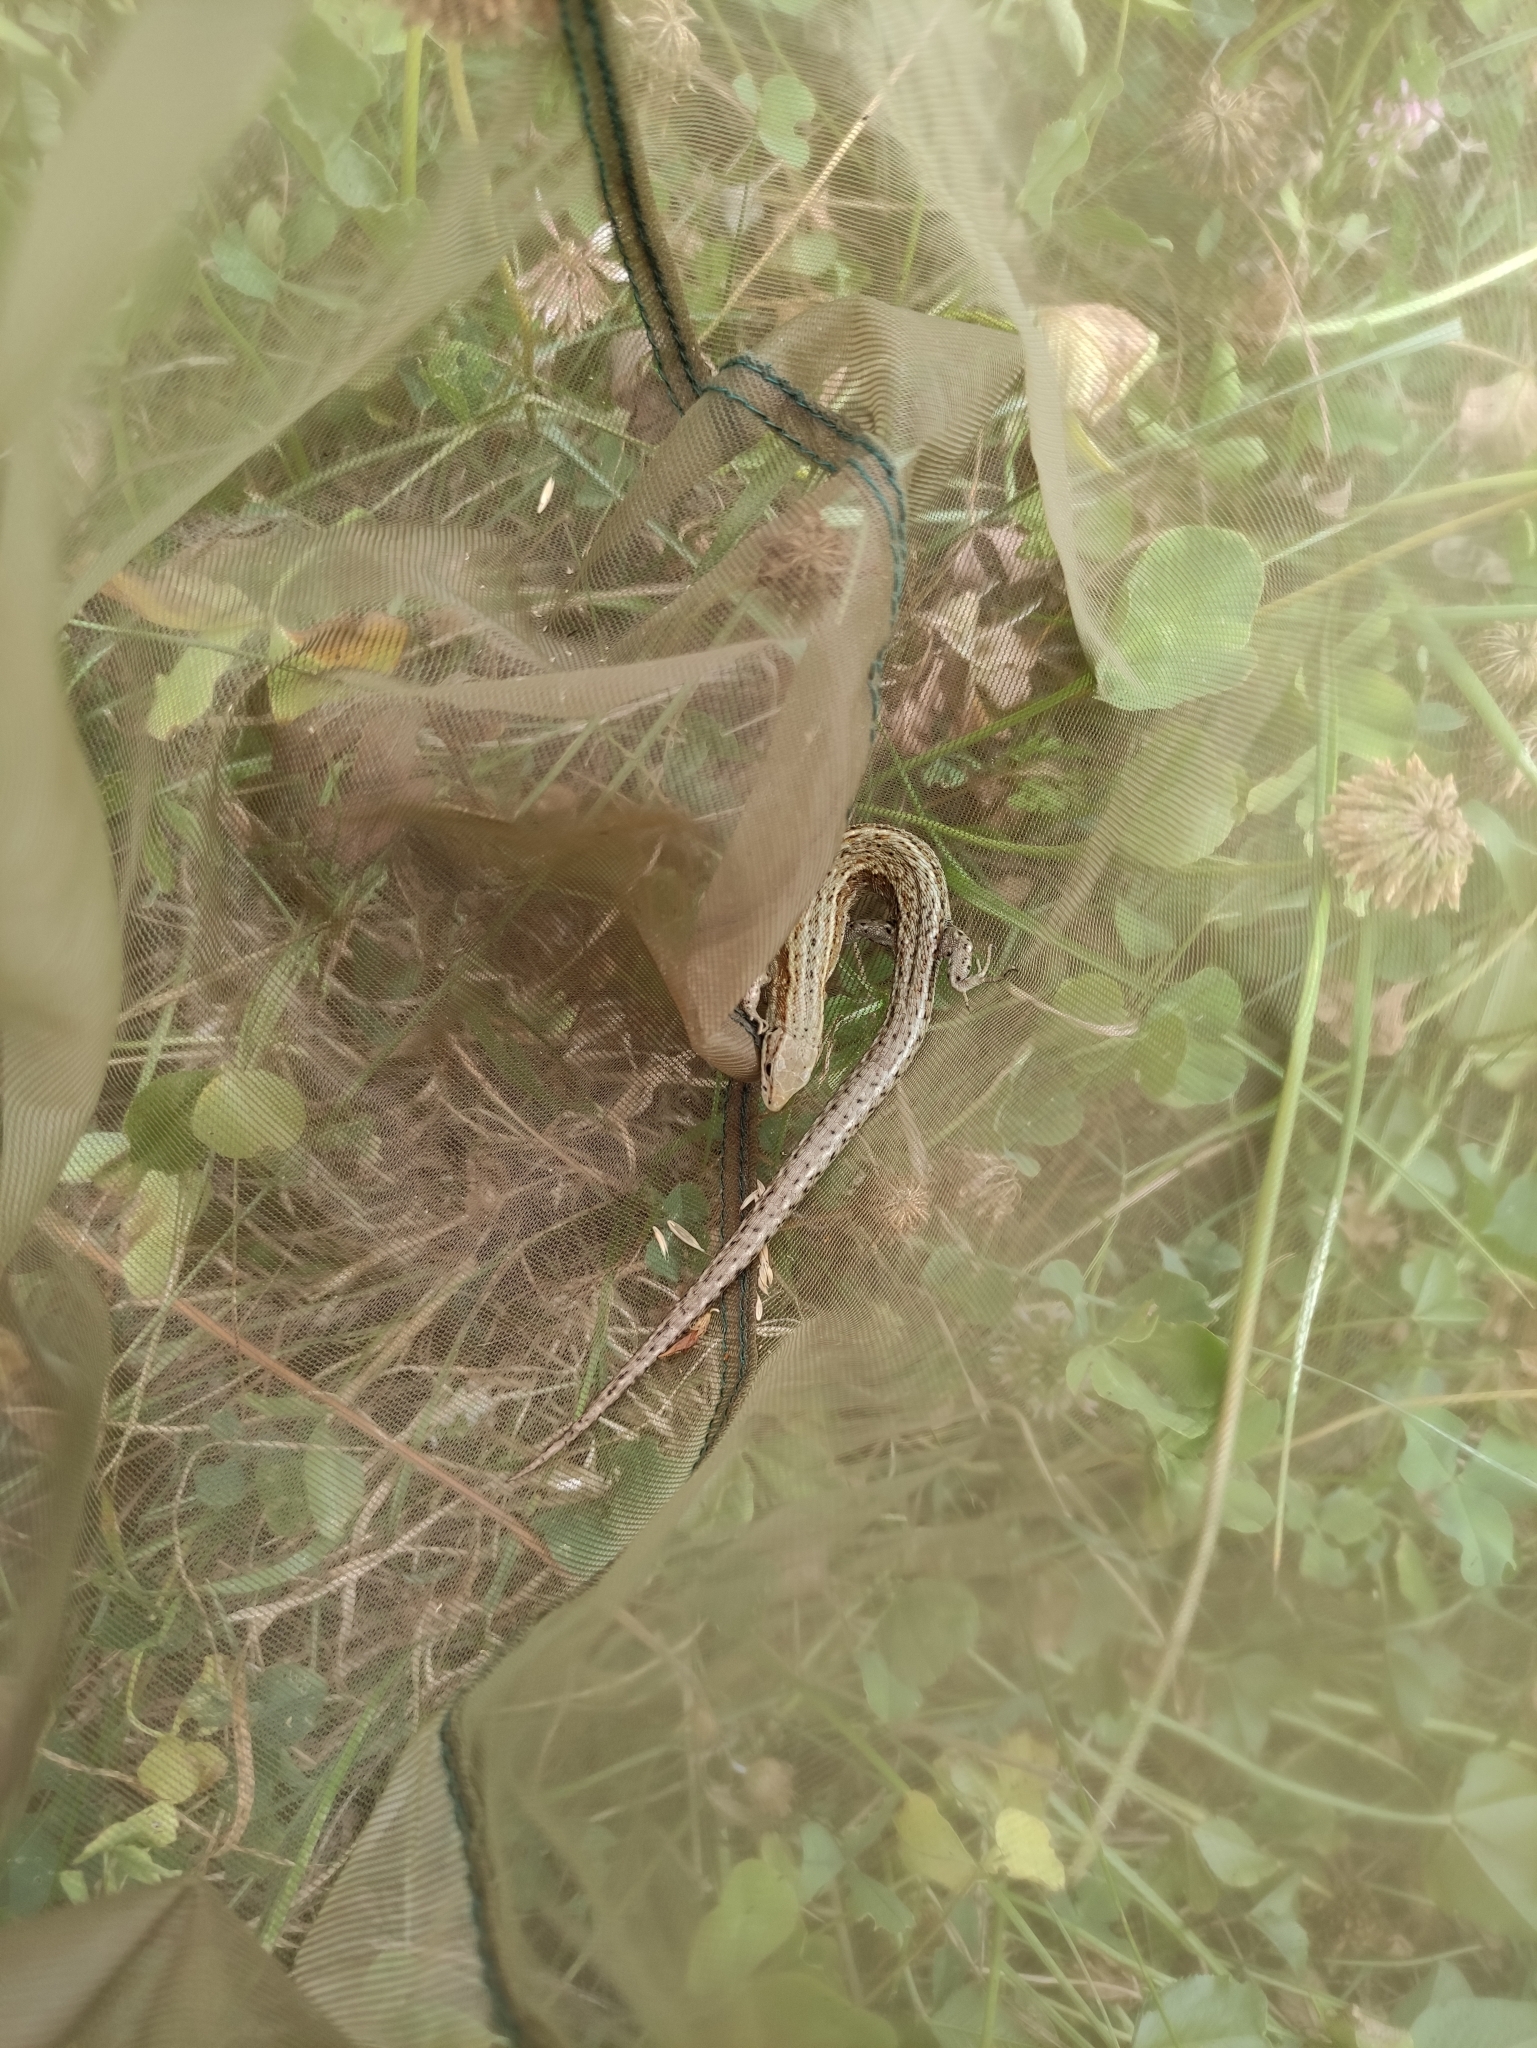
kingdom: Animalia
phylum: Chordata
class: Squamata
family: Lacertidae
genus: Zootoca
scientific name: Zootoca vivipara
